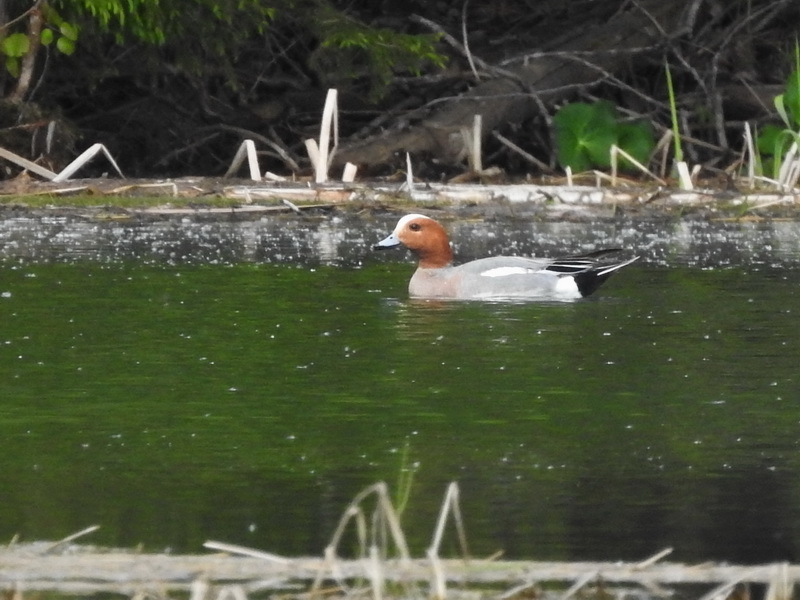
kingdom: Animalia
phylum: Chordata
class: Aves
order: Anseriformes
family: Anatidae
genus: Mareca
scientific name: Mareca penelope
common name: Eurasian wigeon
